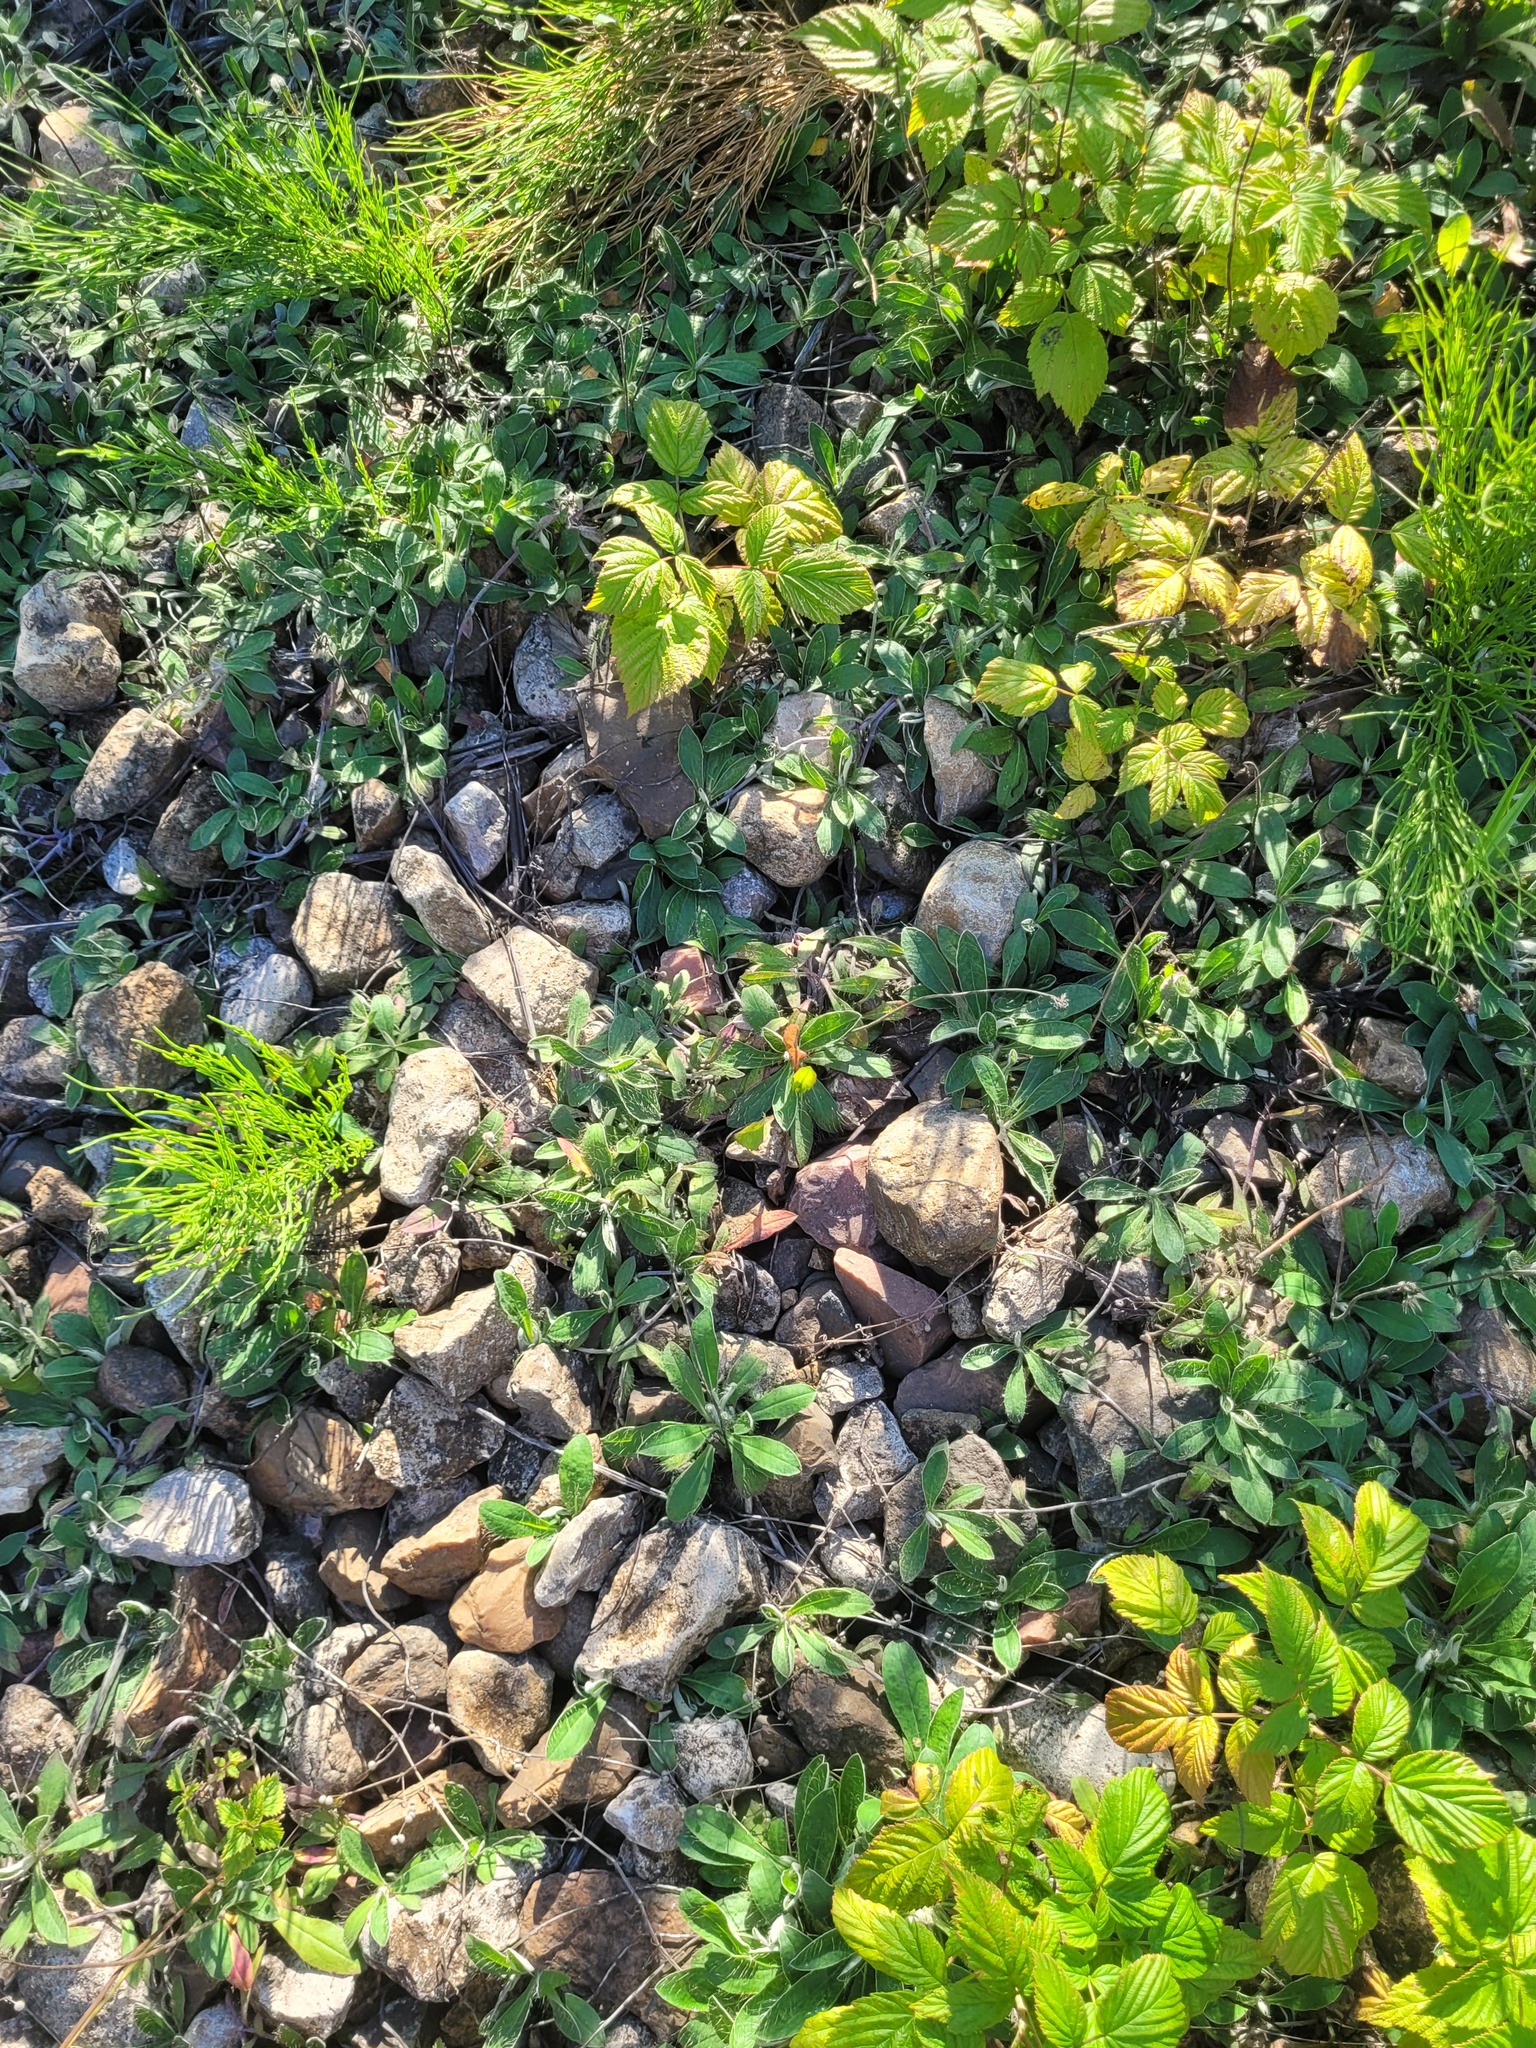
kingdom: Plantae
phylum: Tracheophyta
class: Magnoliopsida
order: Asterales
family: Asteraceae
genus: Pilosella
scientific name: Pilosella officinarum
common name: Mouse-ear hawkweed
